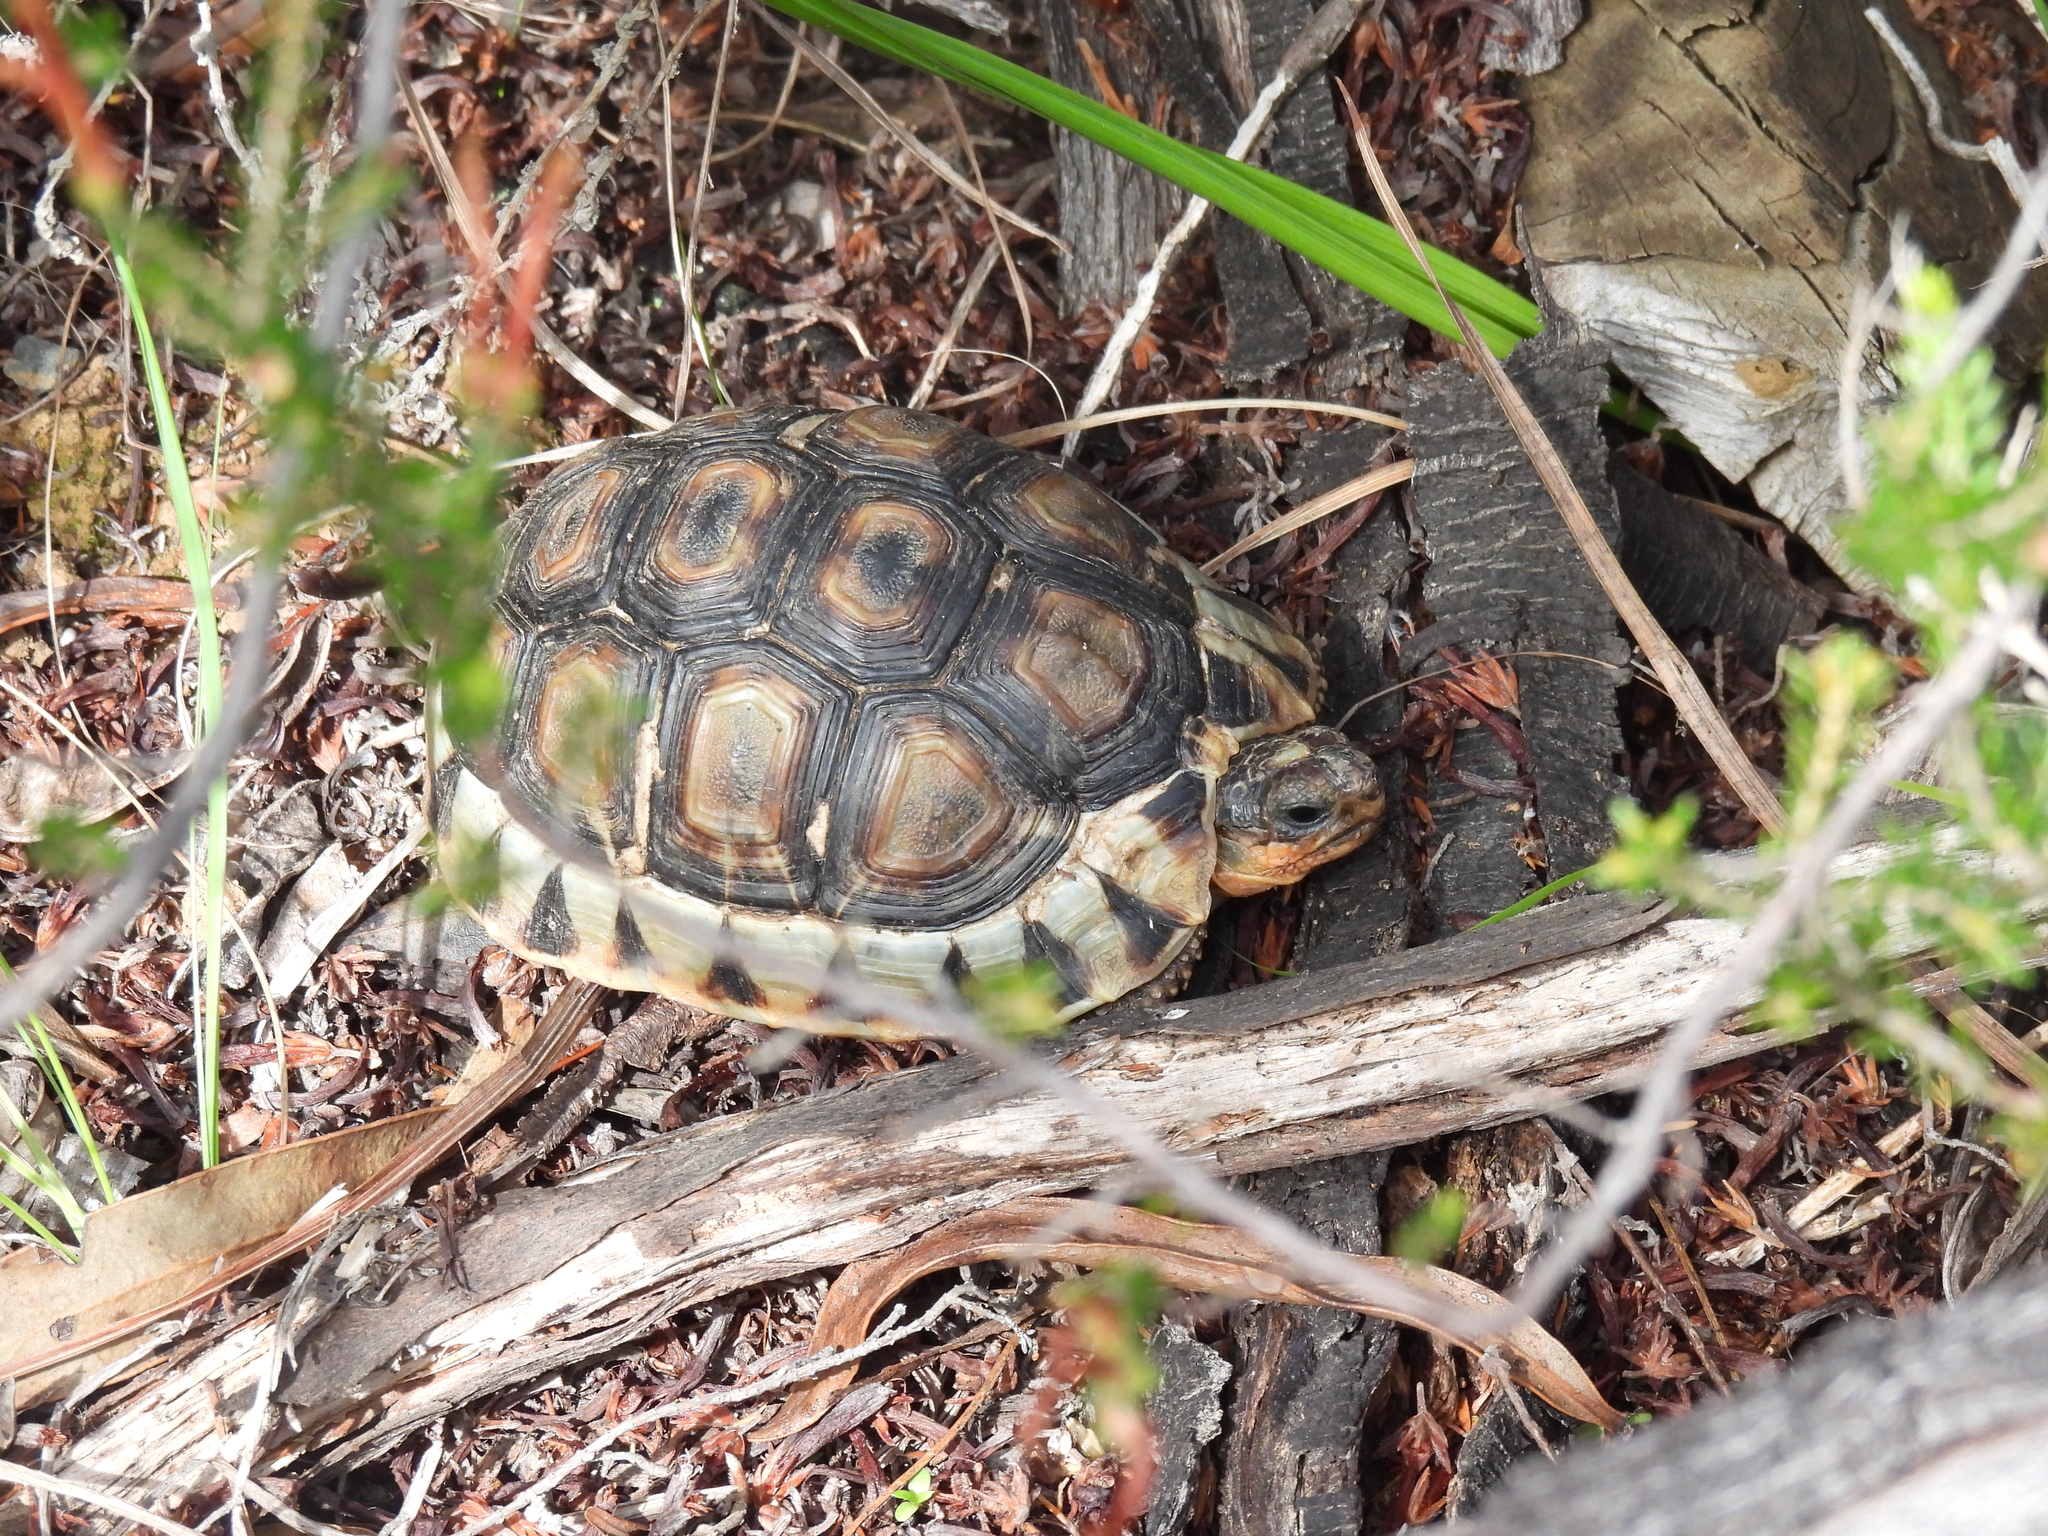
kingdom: Animalia
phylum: Chordata
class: Testudines
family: Testudinidae
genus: Chersina
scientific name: Chersina angulata
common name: South african bowsprit tortoise
